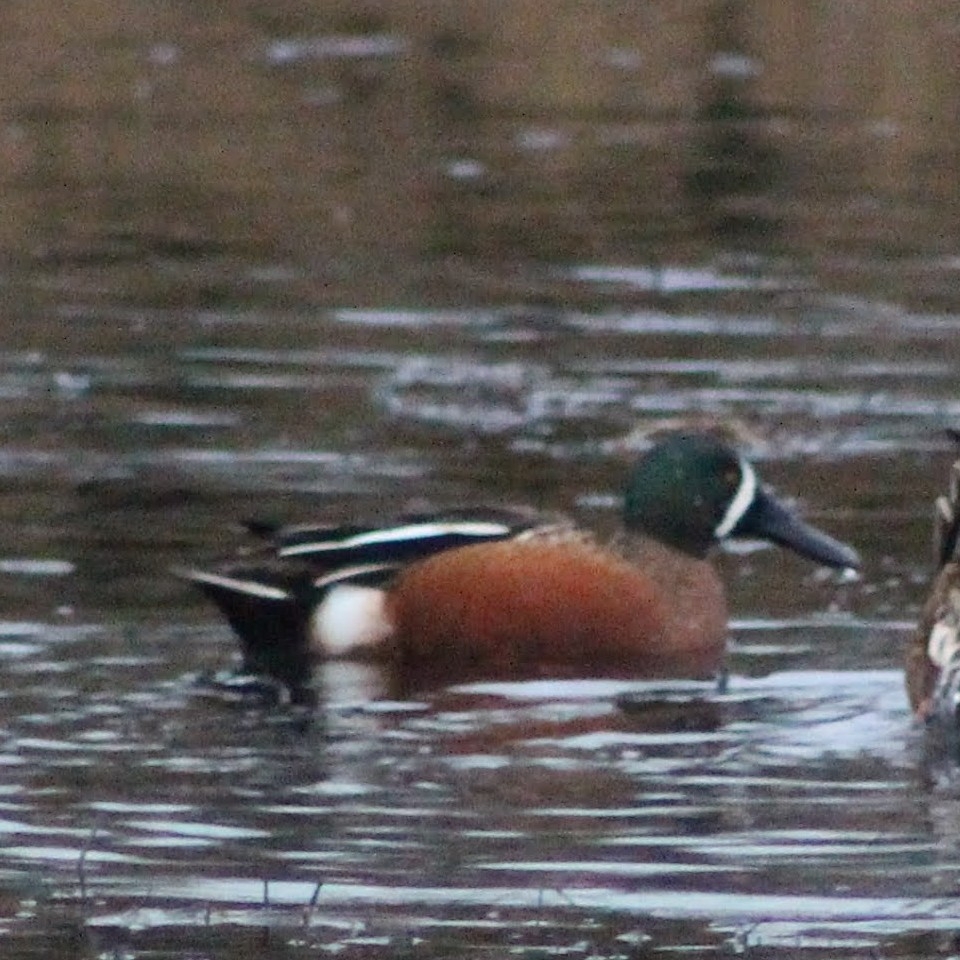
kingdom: Animalia
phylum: Chordata
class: Aves
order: Anseriformes
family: Anatidae
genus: Spatula
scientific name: Spatula
